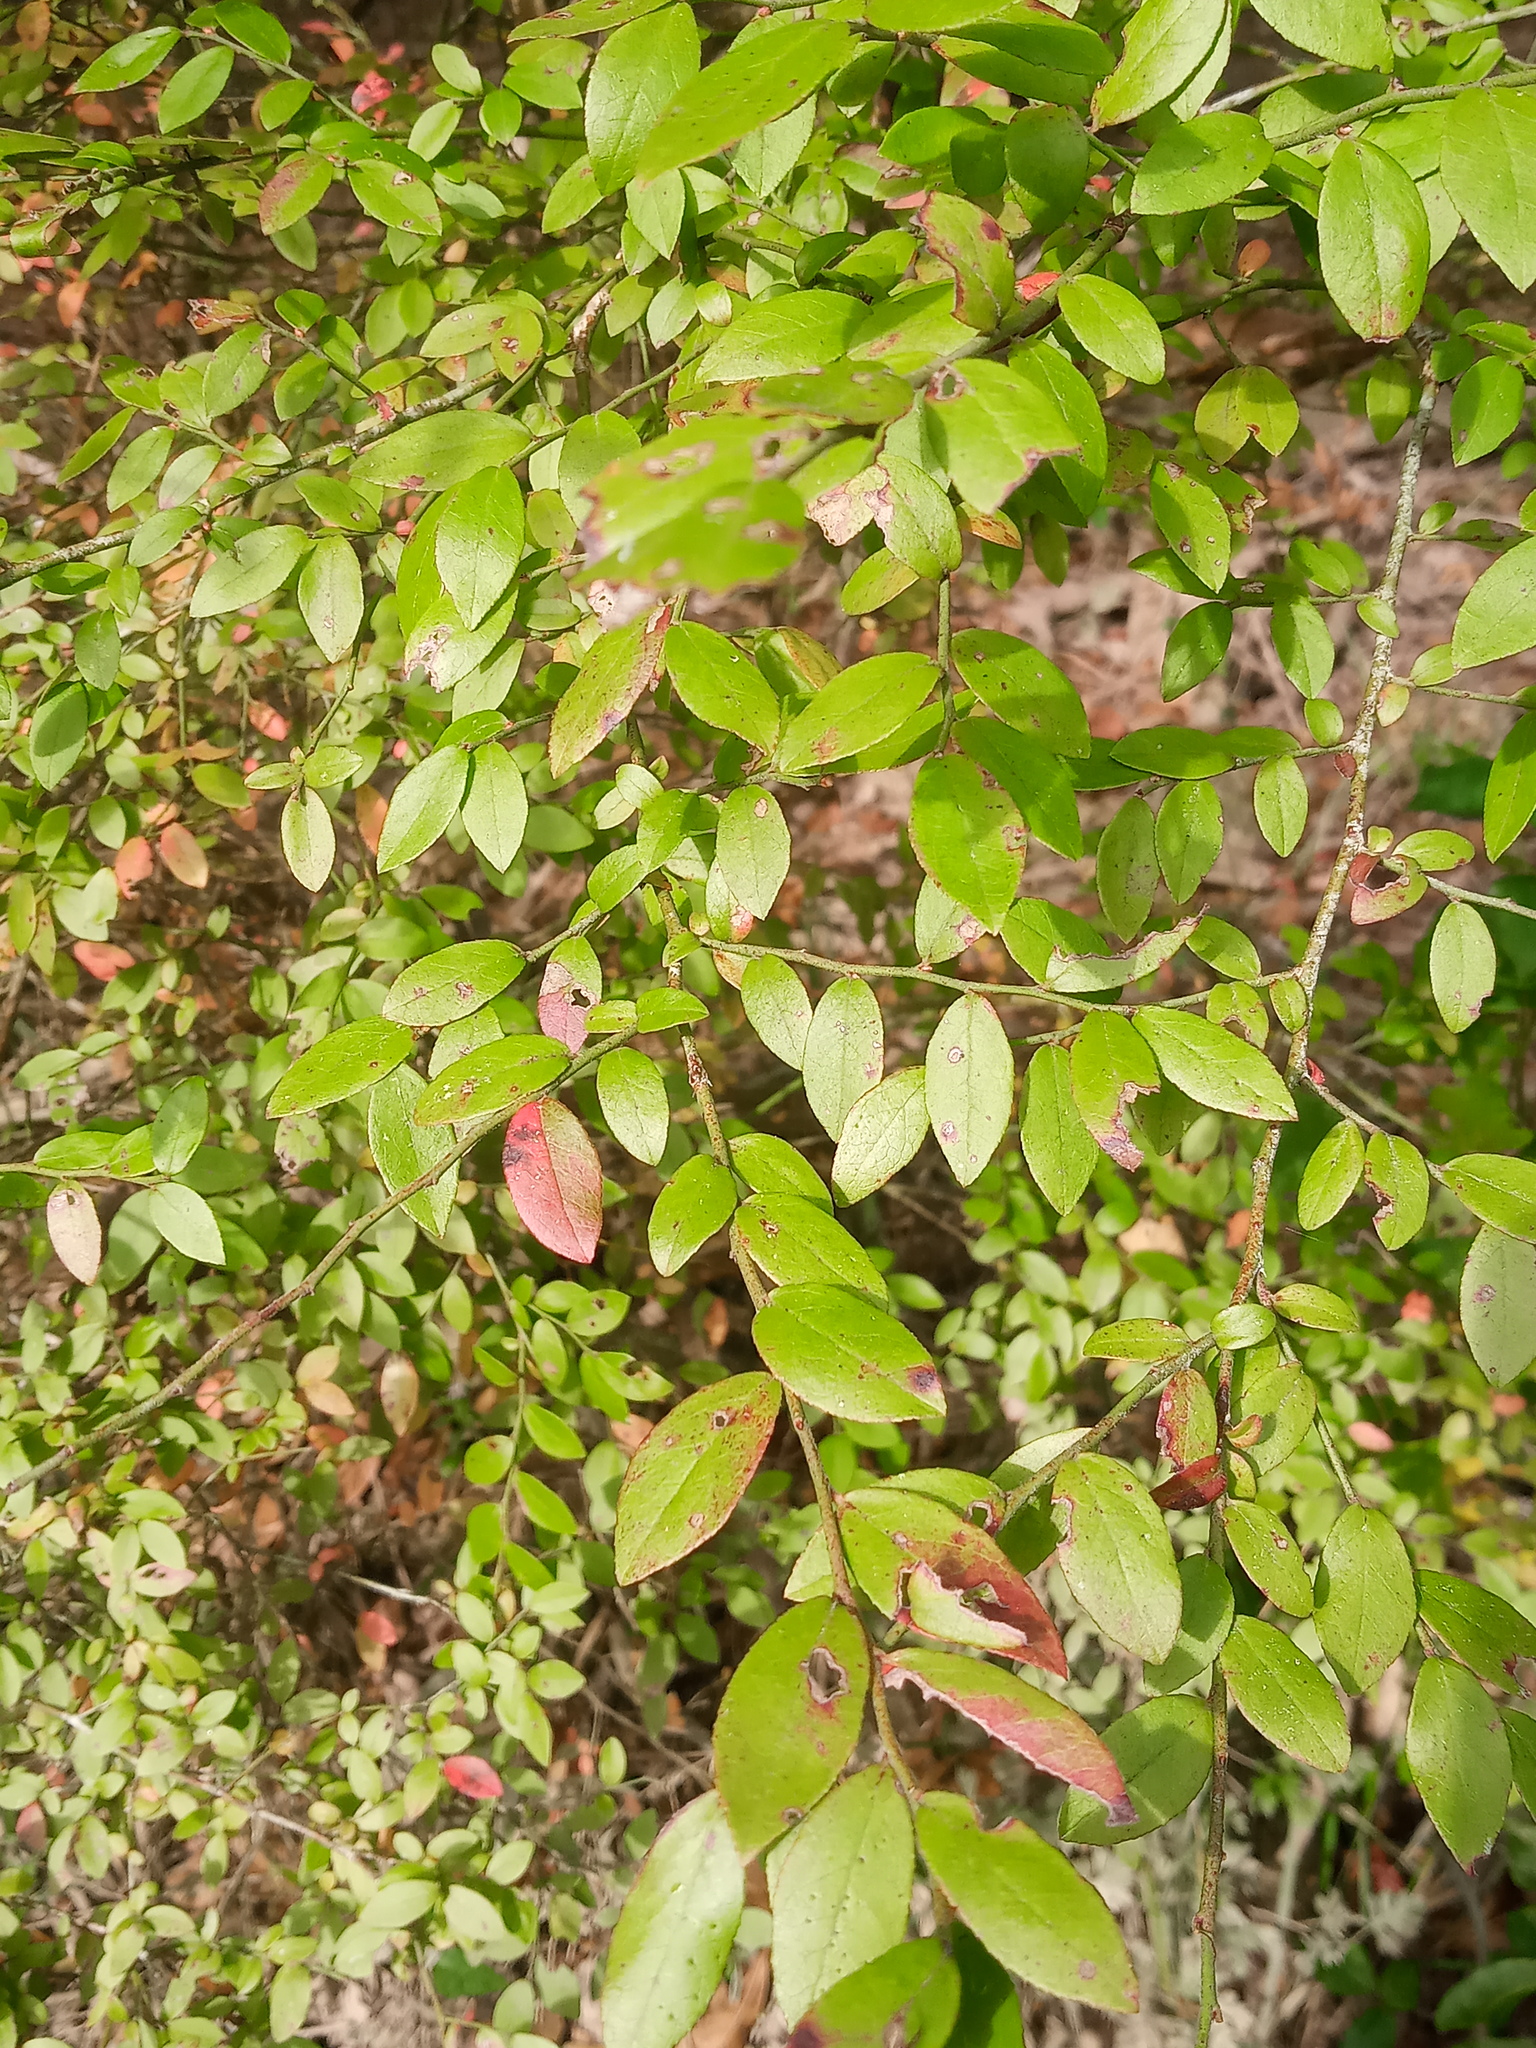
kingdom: Plantae
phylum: Tracheophyta
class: Magnoliopsida
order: Ericales
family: Ericaceae
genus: Vaccinium
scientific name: Vaccinium corymbosum
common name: Blueberry
